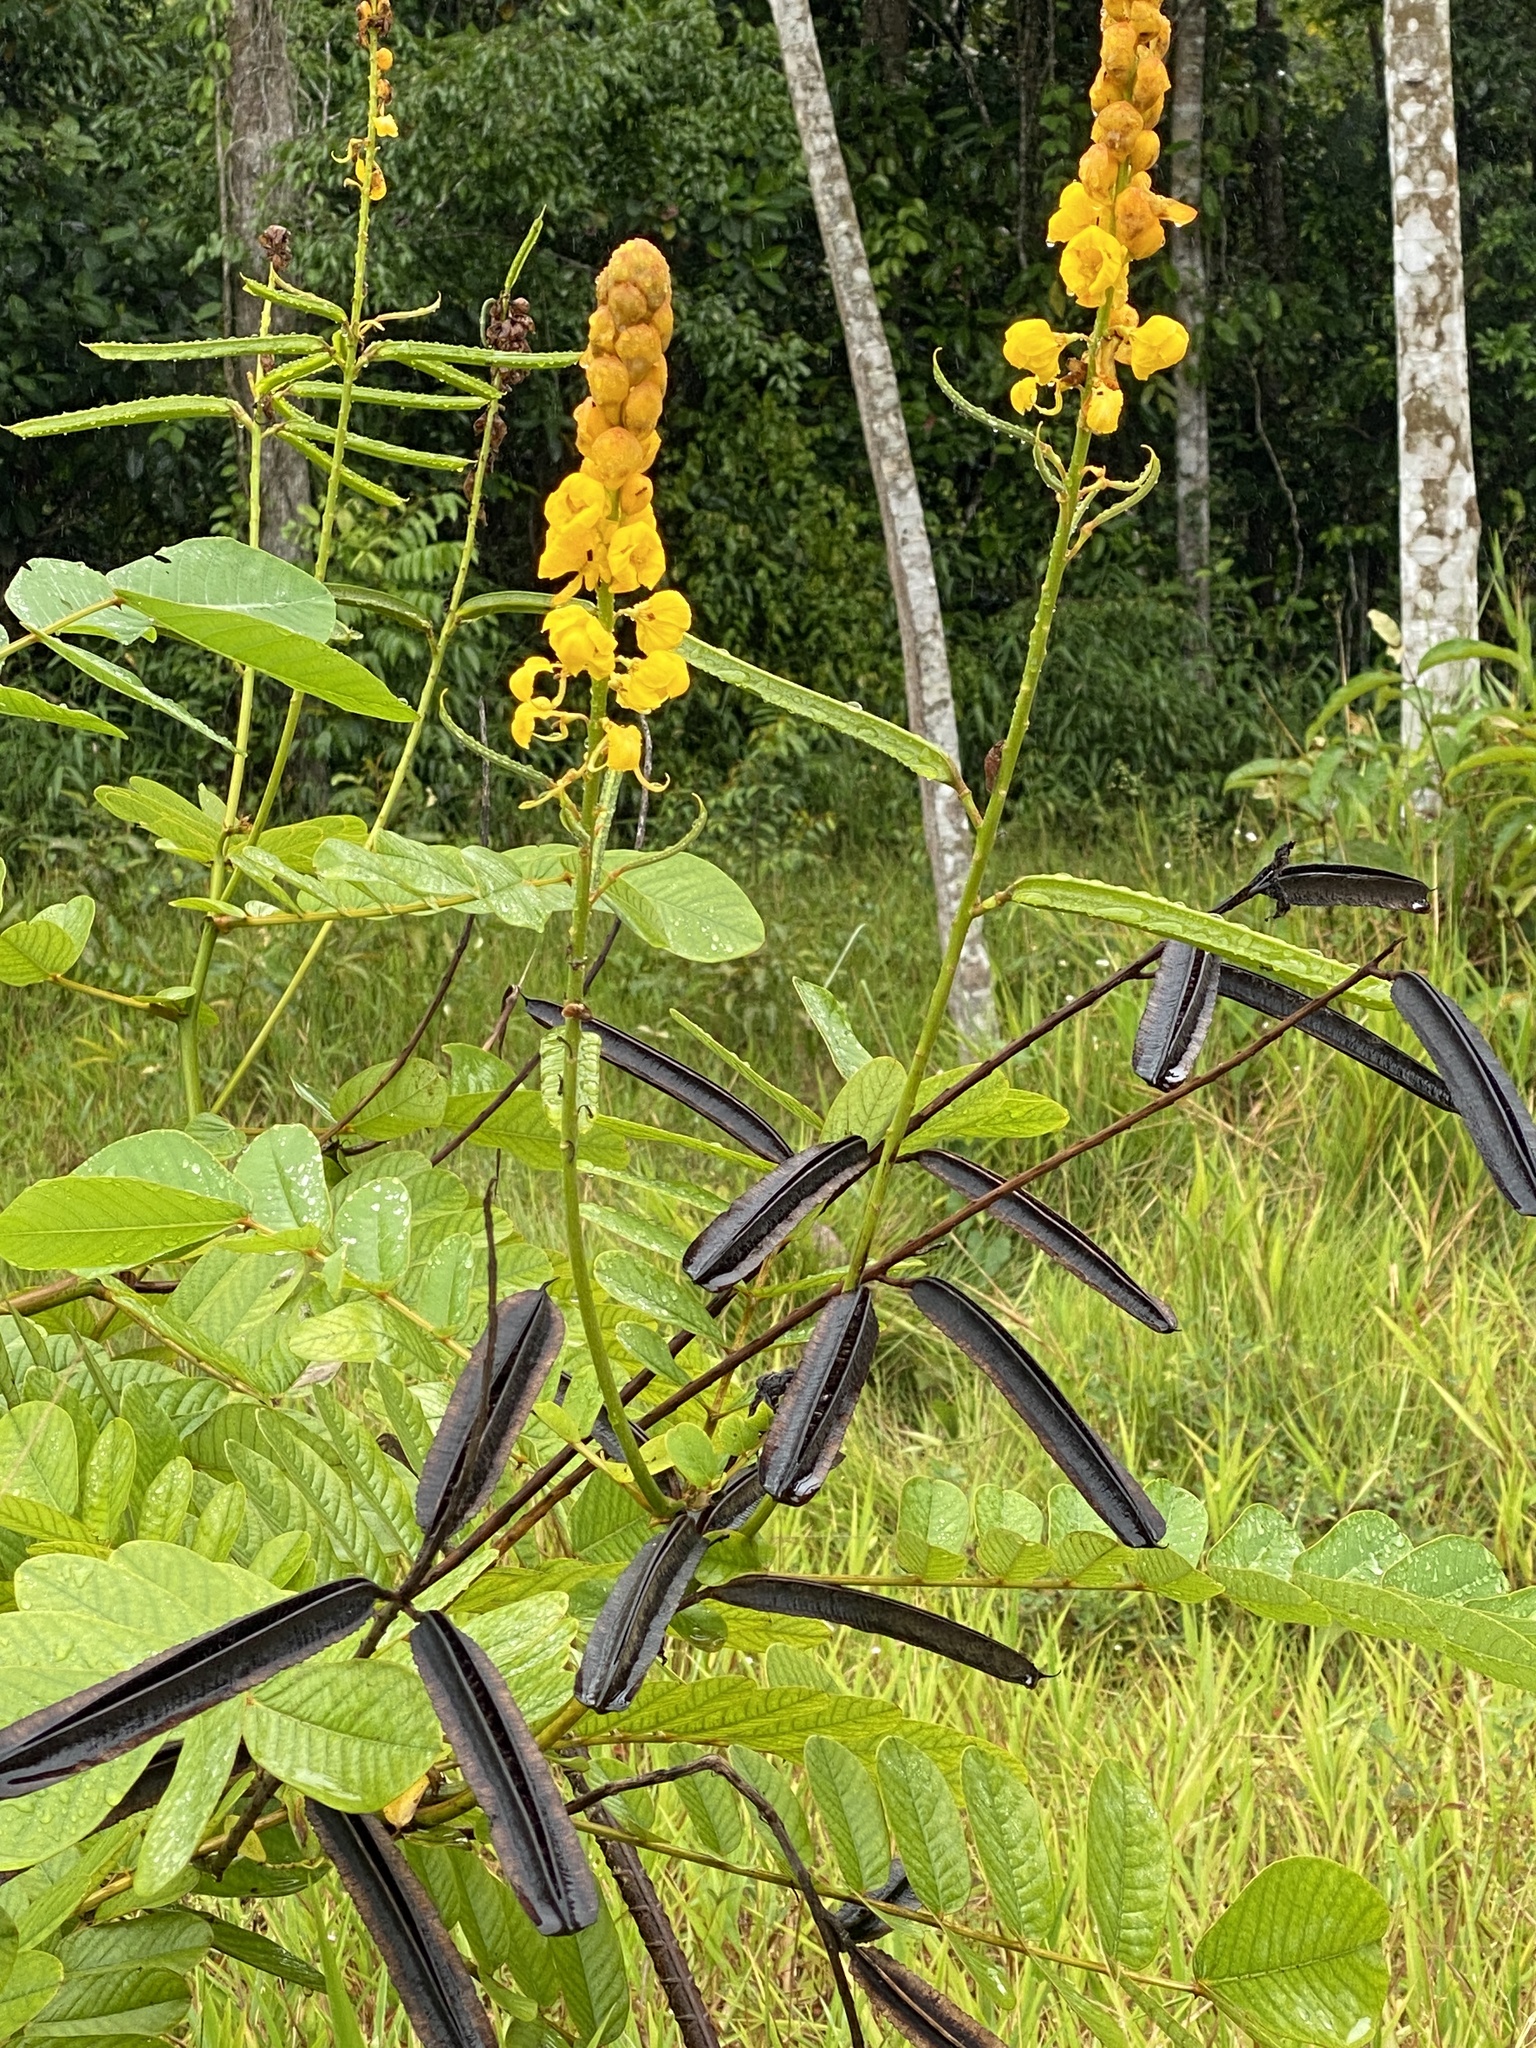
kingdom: Plantae
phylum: Tracheophyta
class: Magnoliopsida
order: Fabales
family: Fabaceae
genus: Senna
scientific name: Senna alata
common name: Emperor's candlesticks
